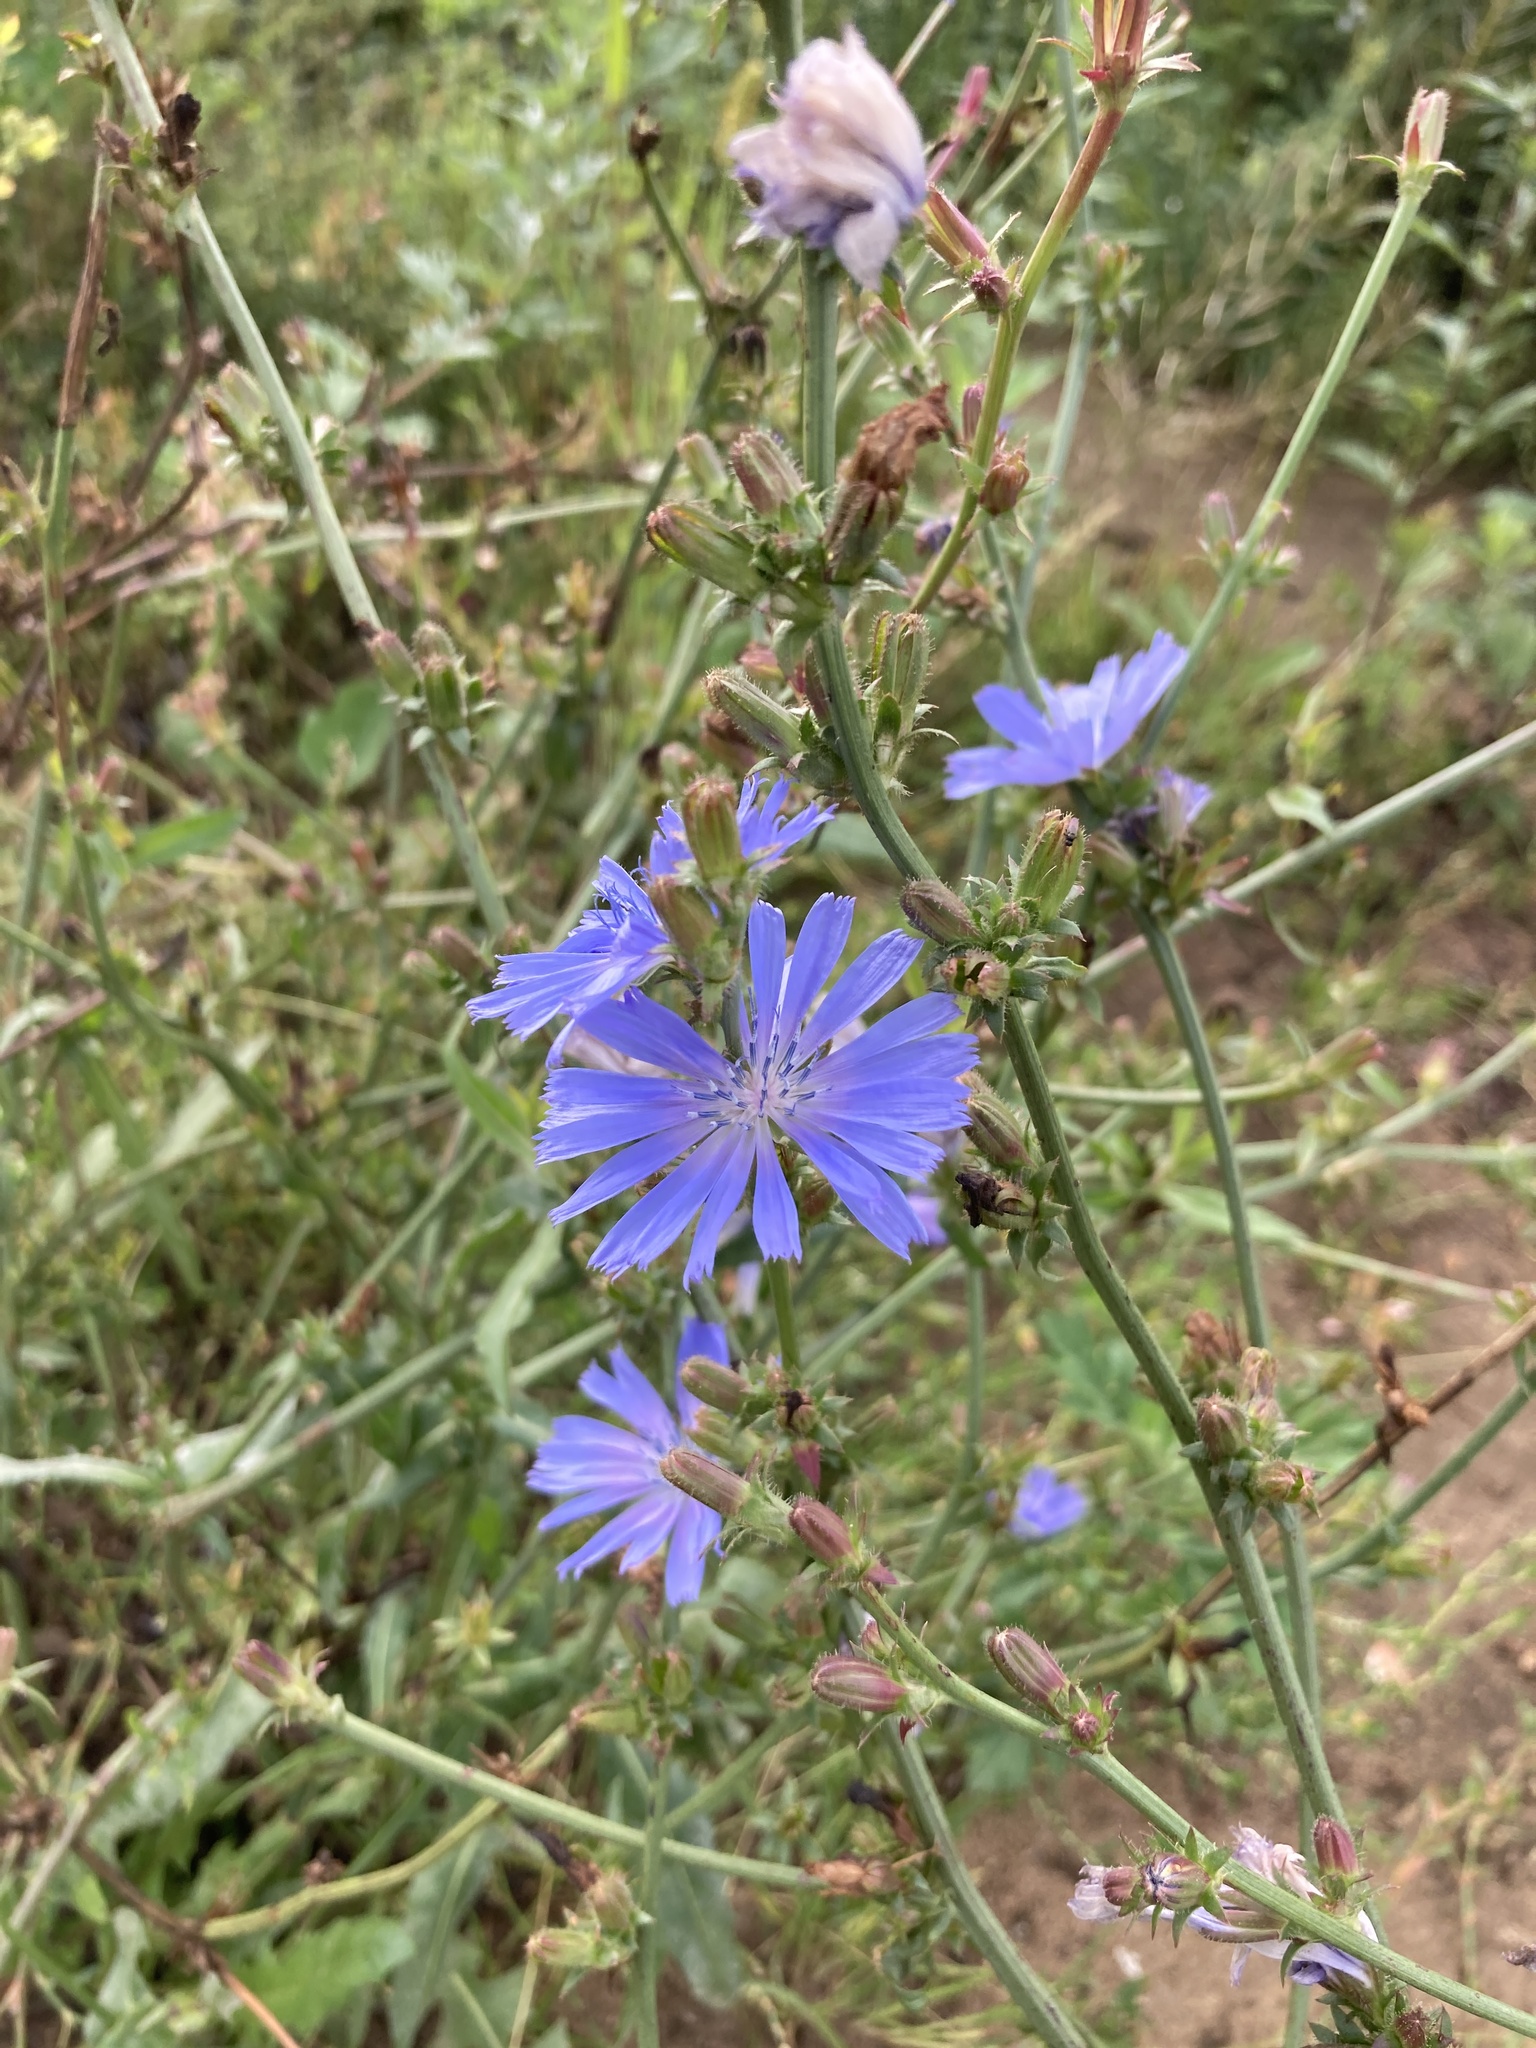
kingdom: Plantae
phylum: Tracheophyta
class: Magnoliopsida
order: Asterales
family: Asteraceae
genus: Cichorium
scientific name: Cichorium intybus
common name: Chicory
